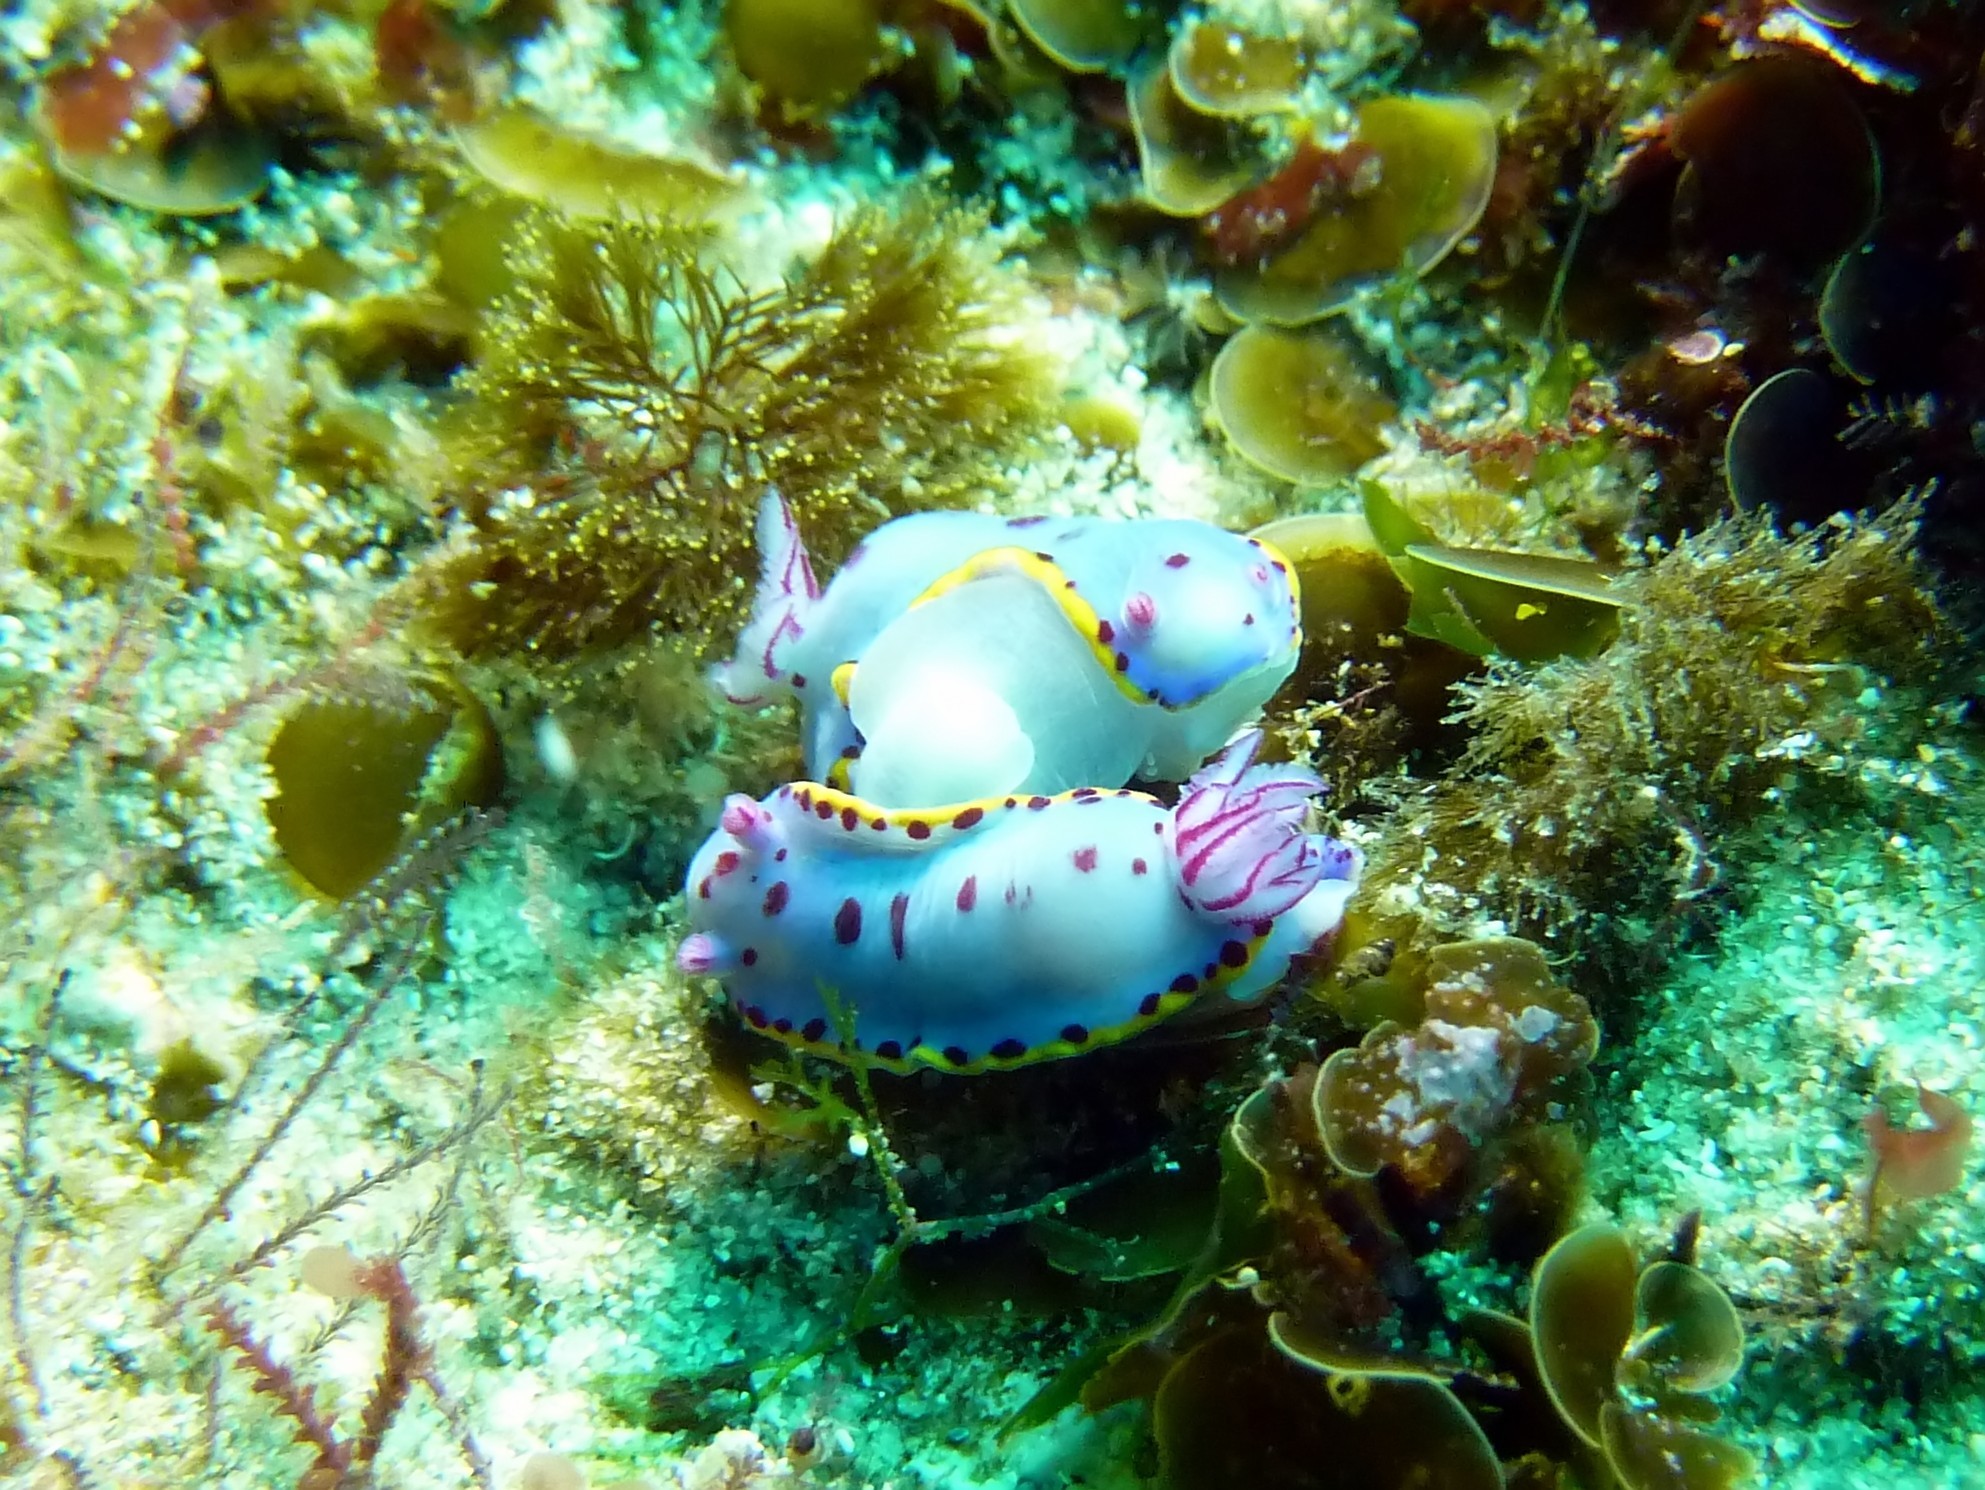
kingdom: Animalia
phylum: Mollusca
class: Gastropoda
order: Nudibranchia
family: Chromodorididae
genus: Hypselodoris
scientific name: Hypselodoris bennetti
